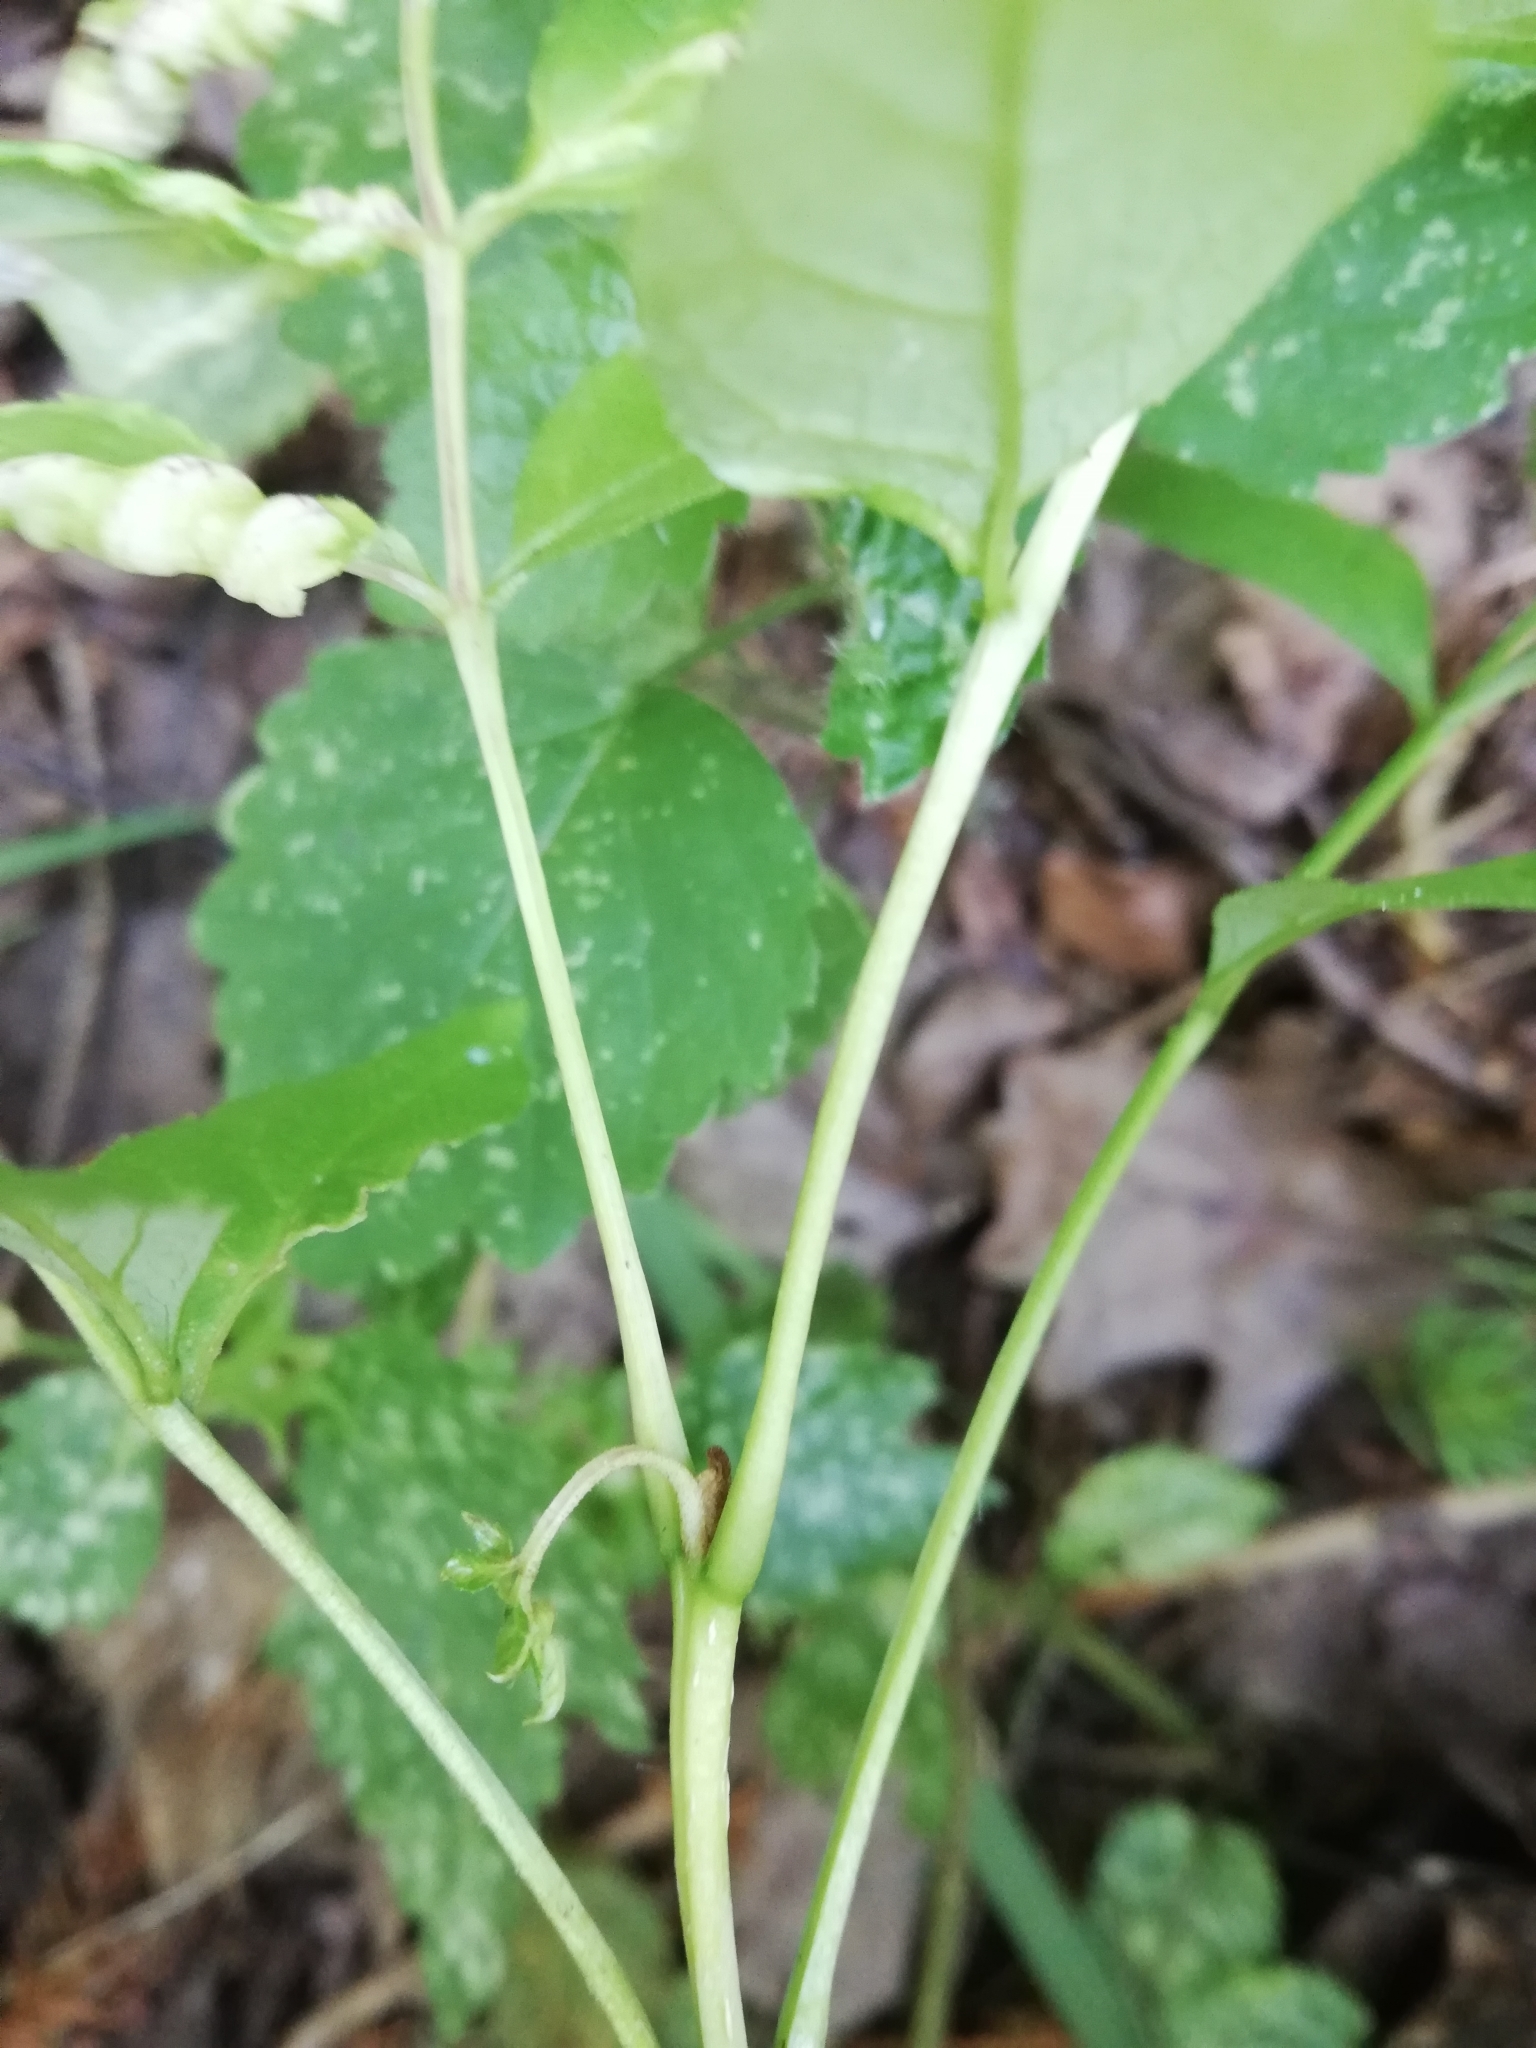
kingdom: Plantae
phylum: Tracheophyta
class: Magnoliopsida
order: Lamiales
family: Oleaceae
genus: Fraxinus
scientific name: Fraxinus excelsior
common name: European ash
